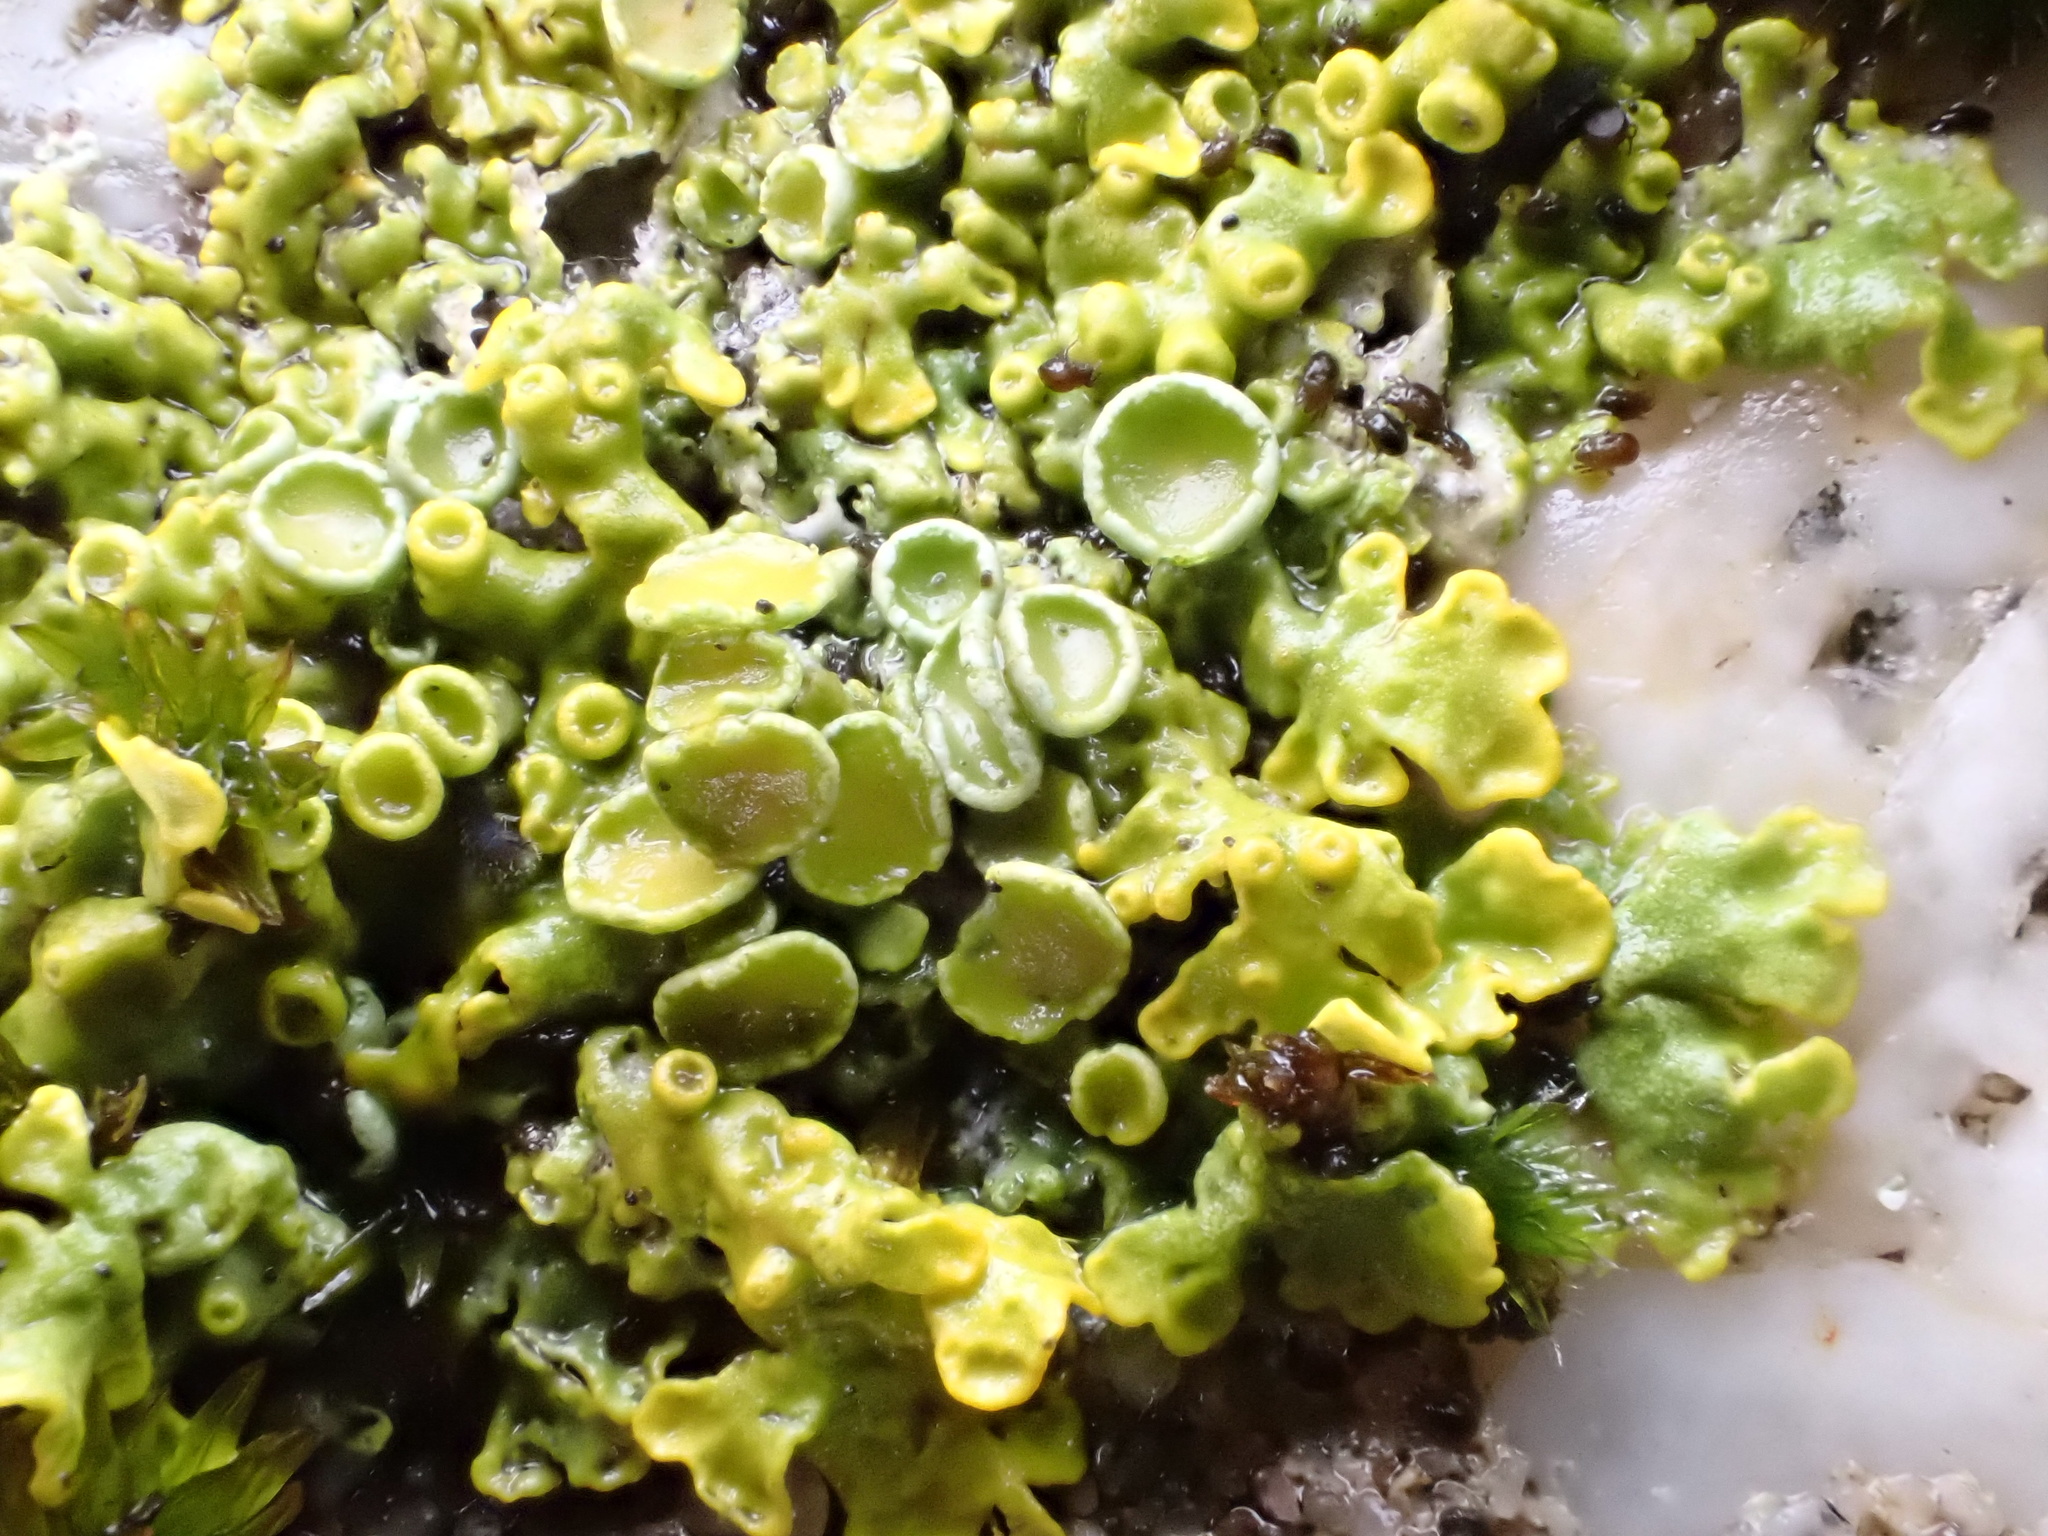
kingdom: Fungi
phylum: Ascomycota
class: Lecanoromycetes
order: Teloschistales
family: Teloschistaceae
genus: Xanthoria
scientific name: Xanthoria parietina
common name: Common orange lichen
